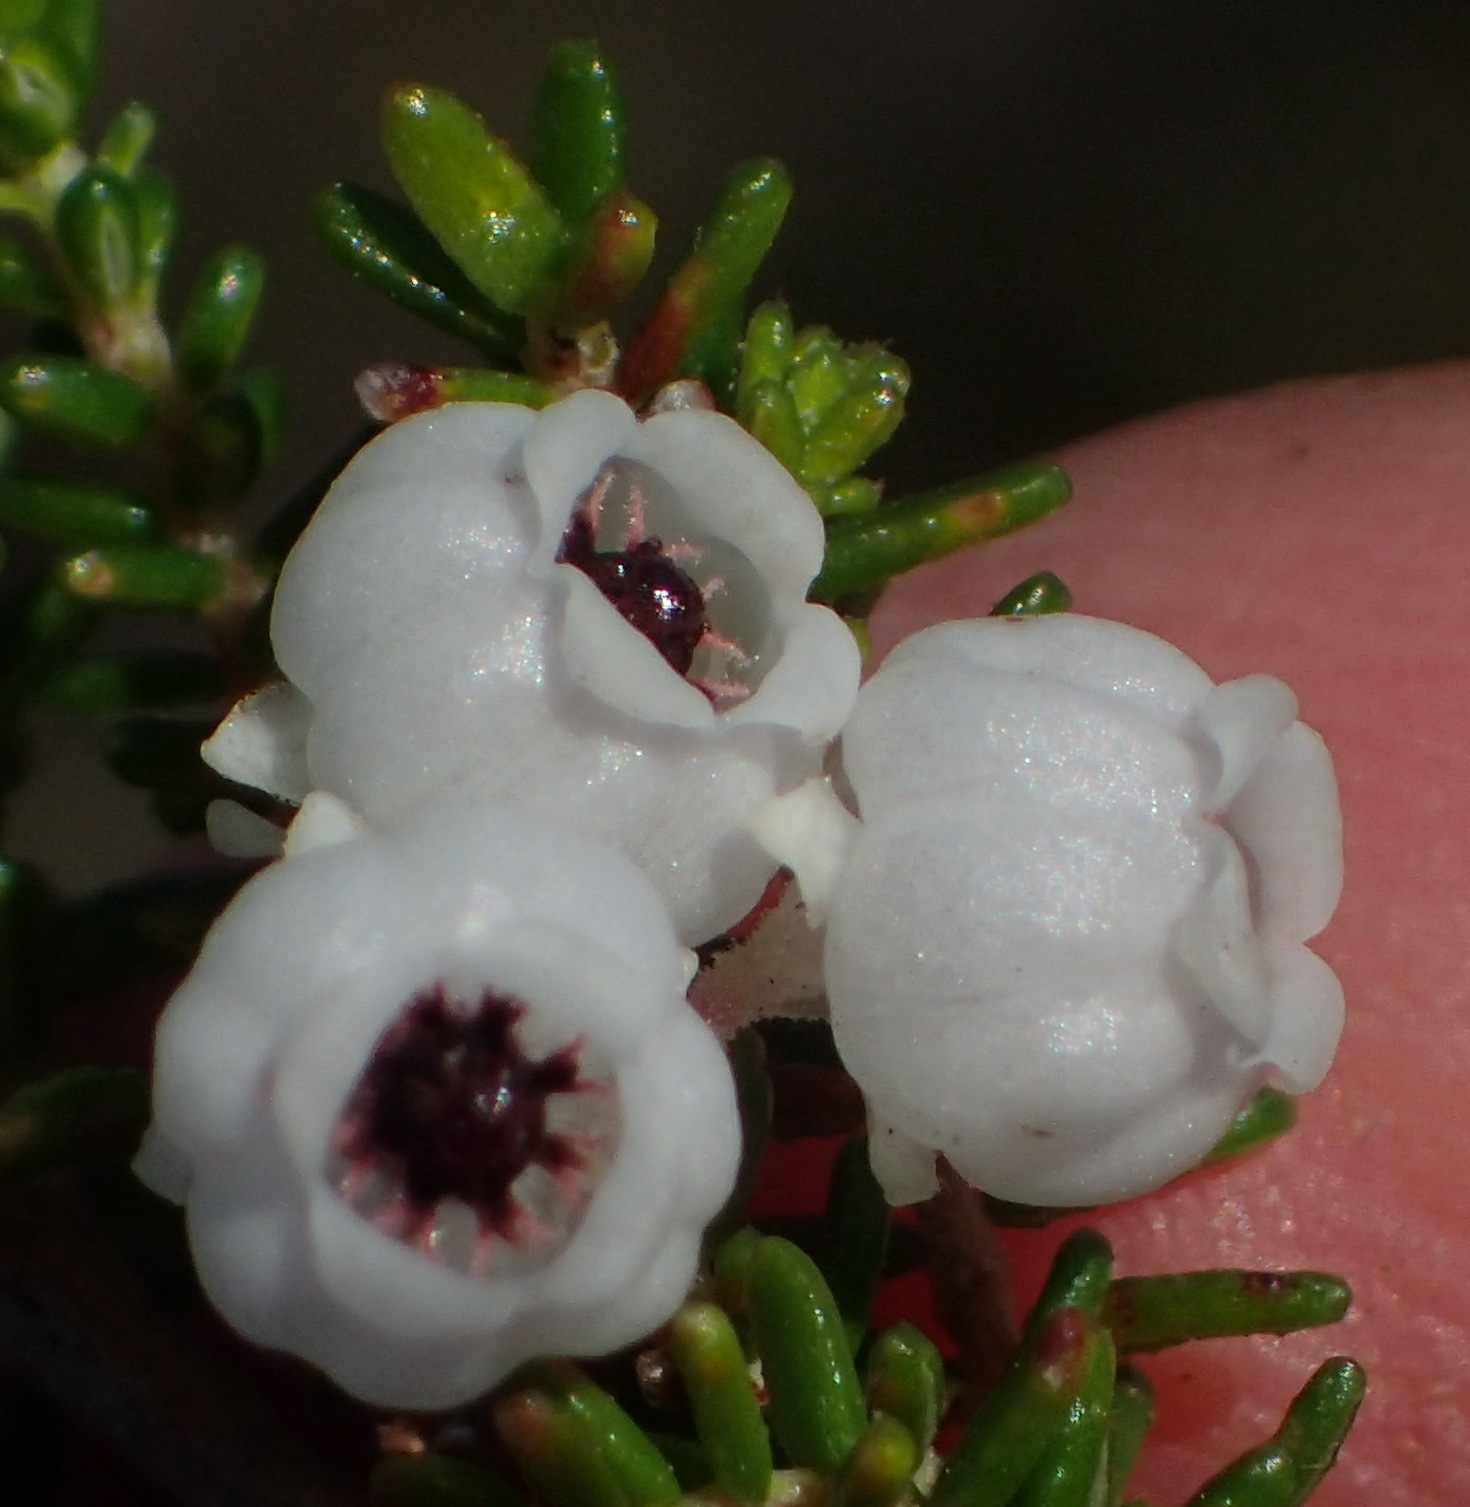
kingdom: Plantae
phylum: Tracheophyta
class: Magnoliopsida
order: Ericales
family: Ericaceae
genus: Erica
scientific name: Erica formosa
